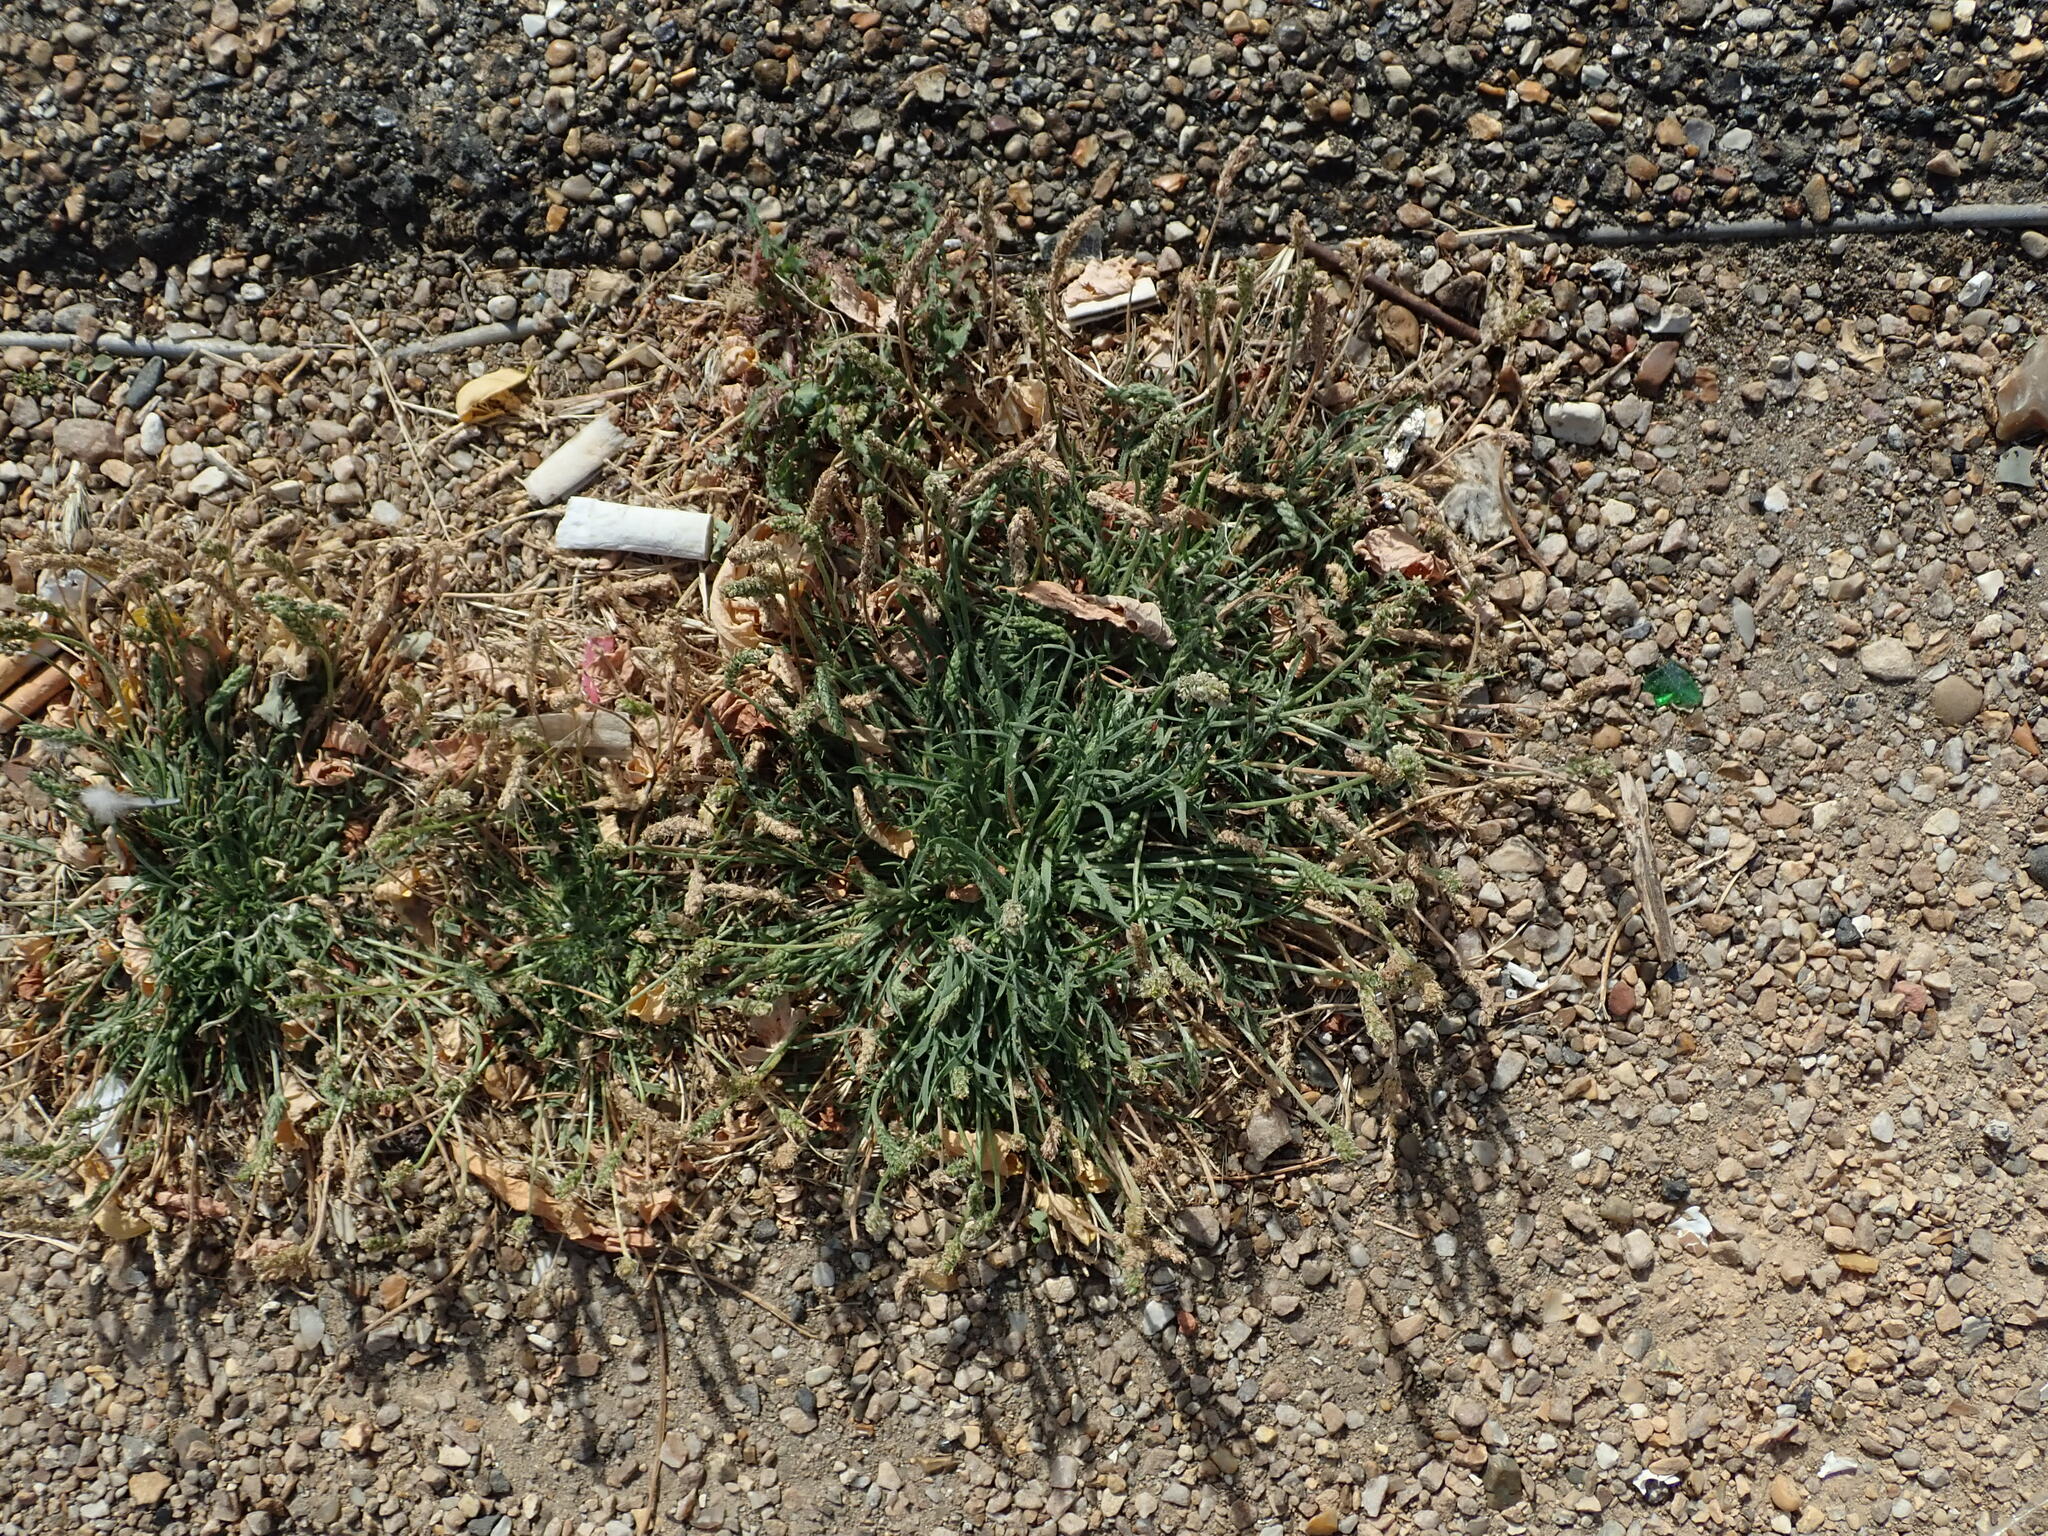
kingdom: Plantae
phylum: Tracheophyta
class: Magnoliopsida
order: Lamiales
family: Plantaginaceae
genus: Plantago
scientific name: Plantago coronopus
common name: Buck's-horn plantain
